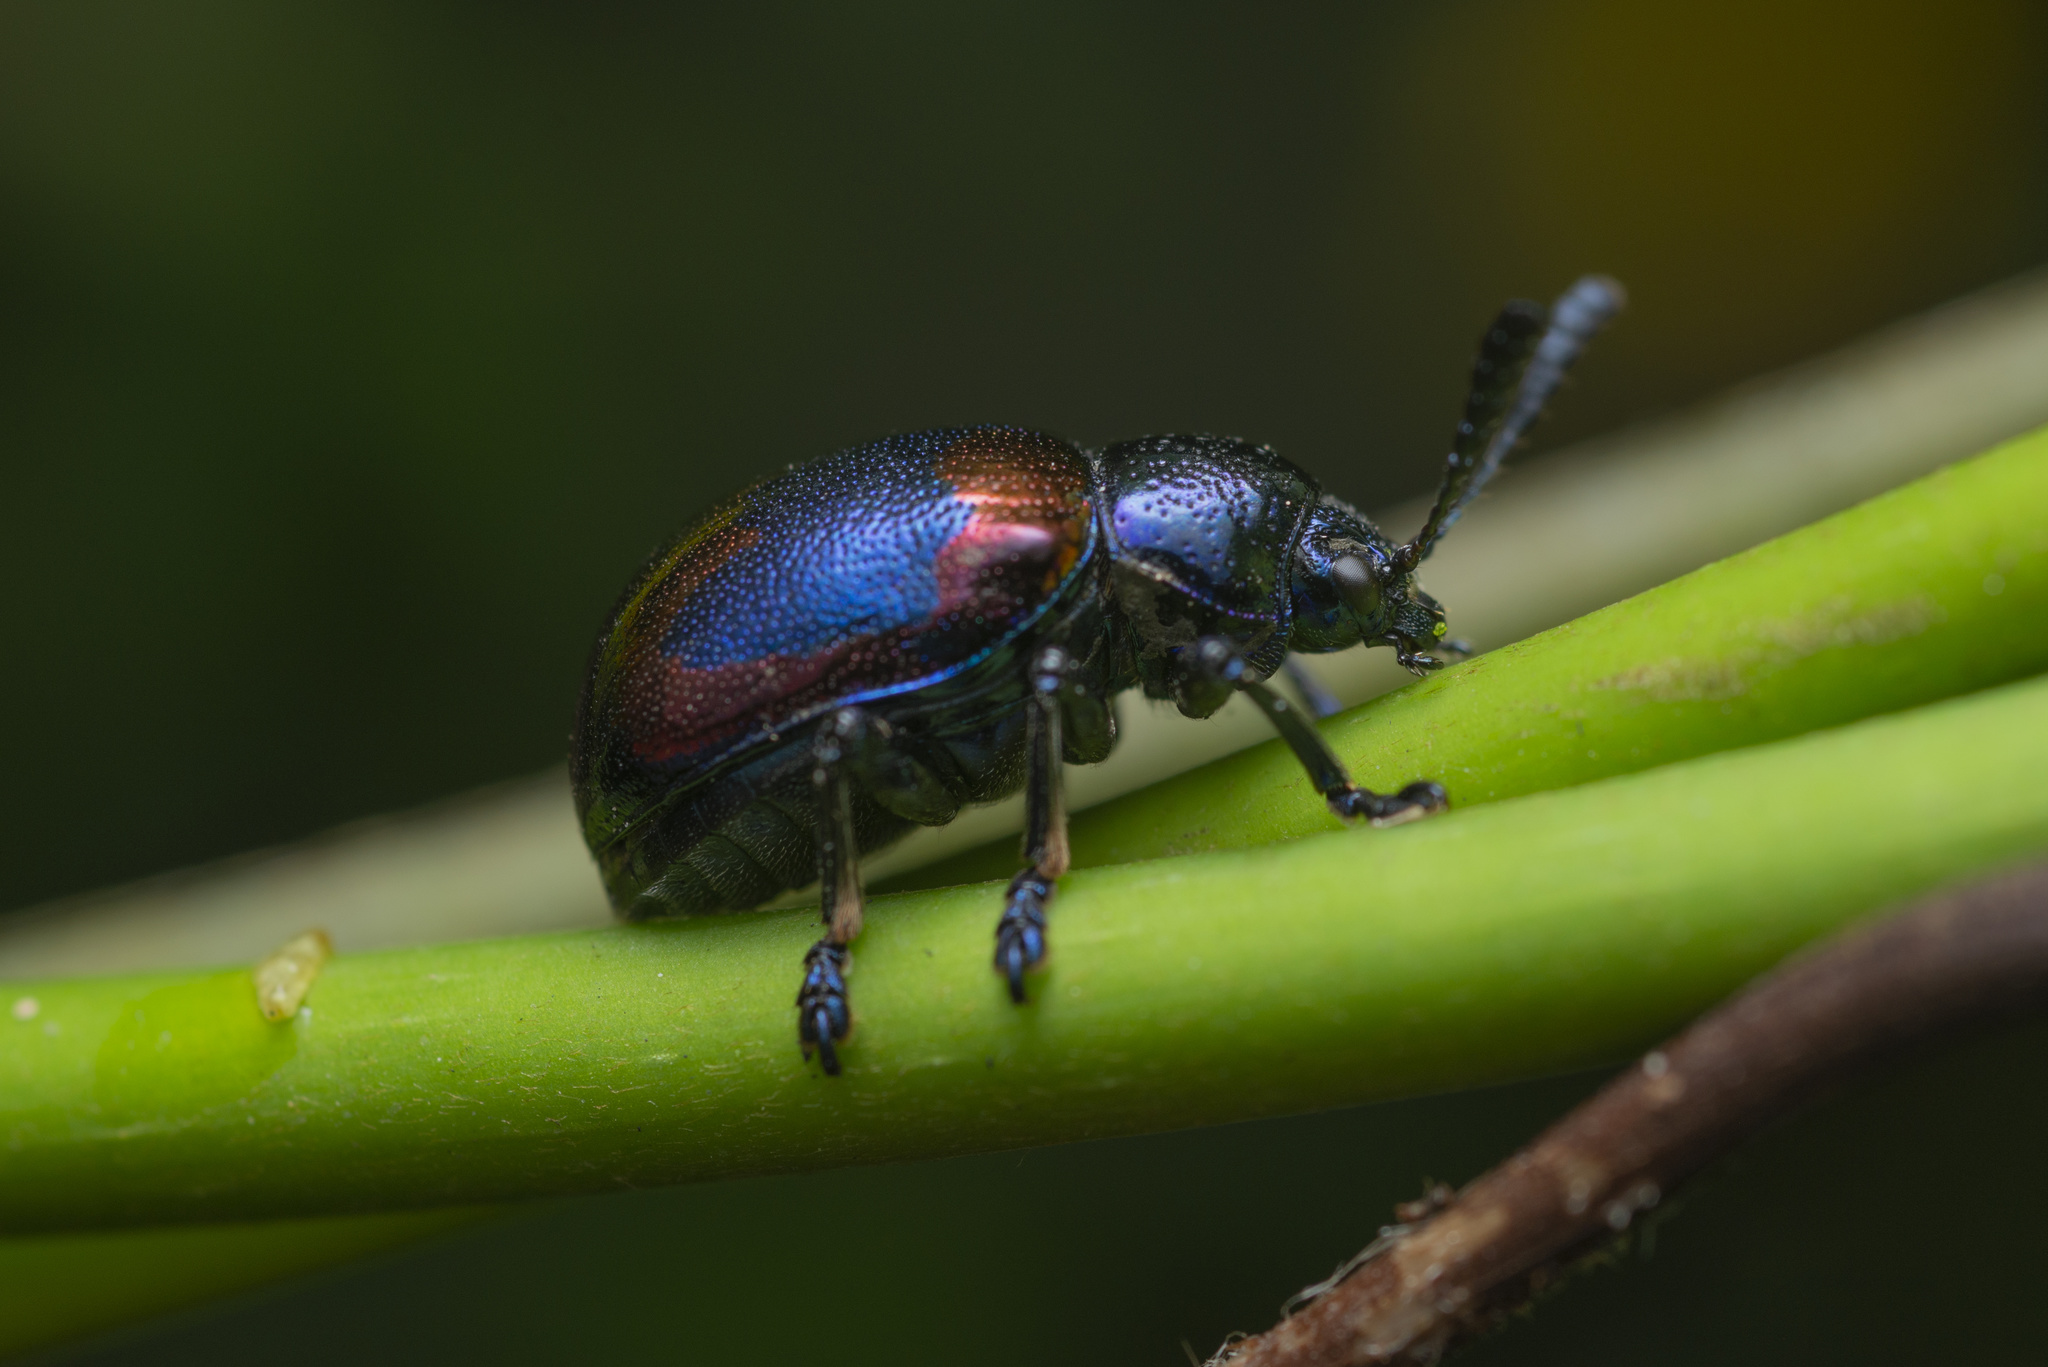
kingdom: Animalia
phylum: Arthropoda
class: Insecta
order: Coleoptera
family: Chrysomelidae
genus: Platycorynus
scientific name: Platycorynus undatus
